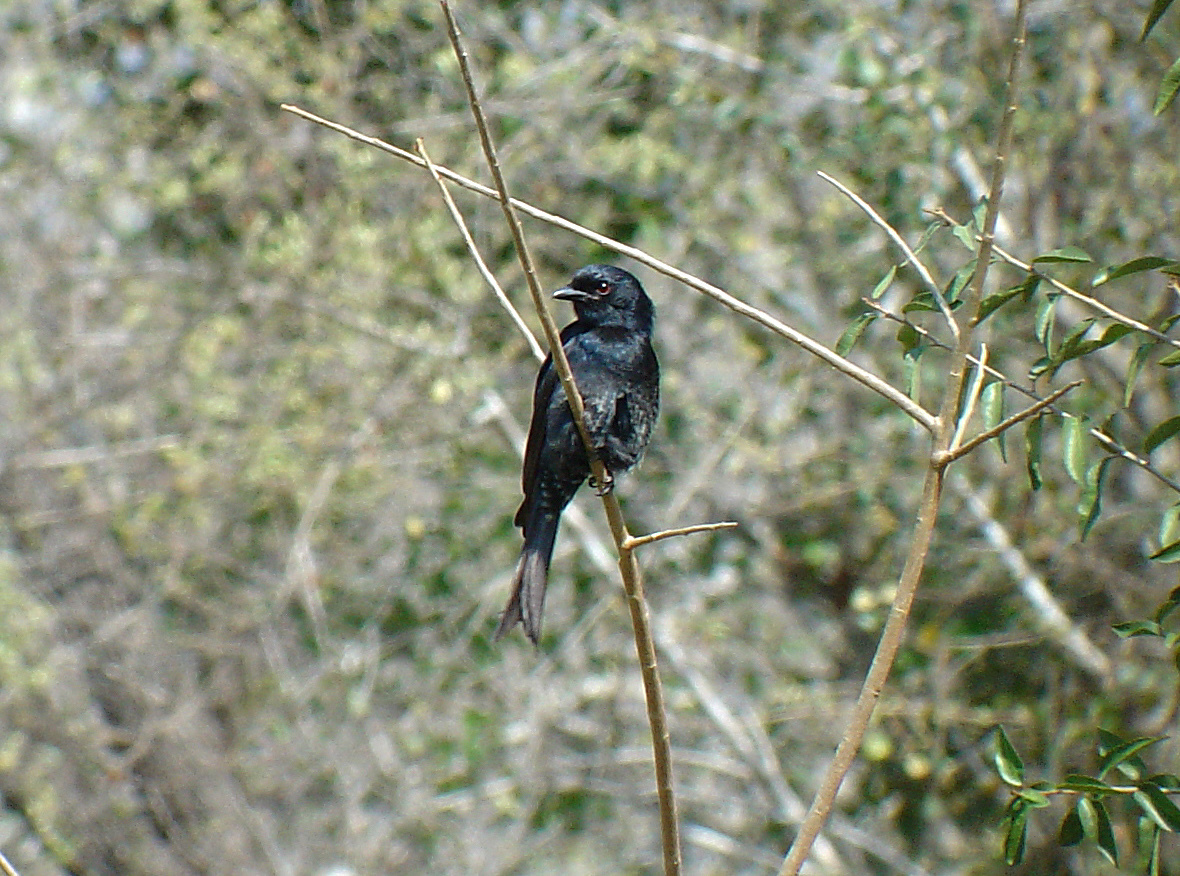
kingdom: Animalia
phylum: Chordata
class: Aves
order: Passeriformes
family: Dicruridae
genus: Dicrurus
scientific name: Dicrurus adsimilis
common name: Fork-tailed drongo
